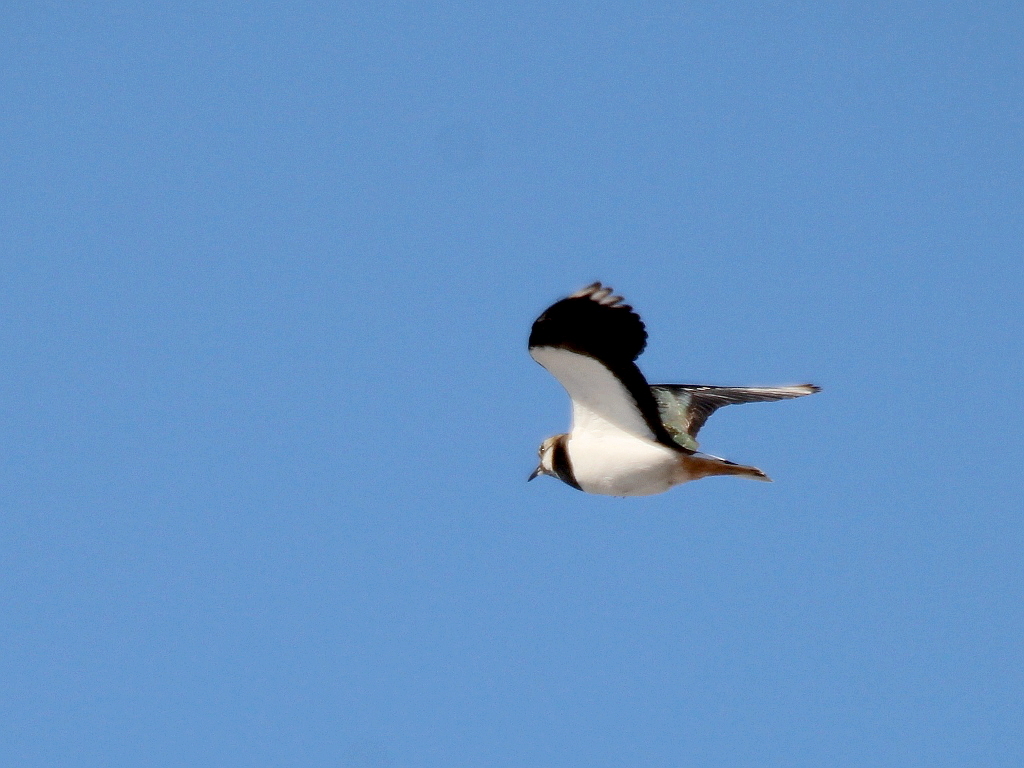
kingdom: Animalia
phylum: Chordata
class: Aves
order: Charadriiformes
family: Charadriidae
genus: Vanellus
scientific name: Vanellus vanellus
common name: Northern lapwing
